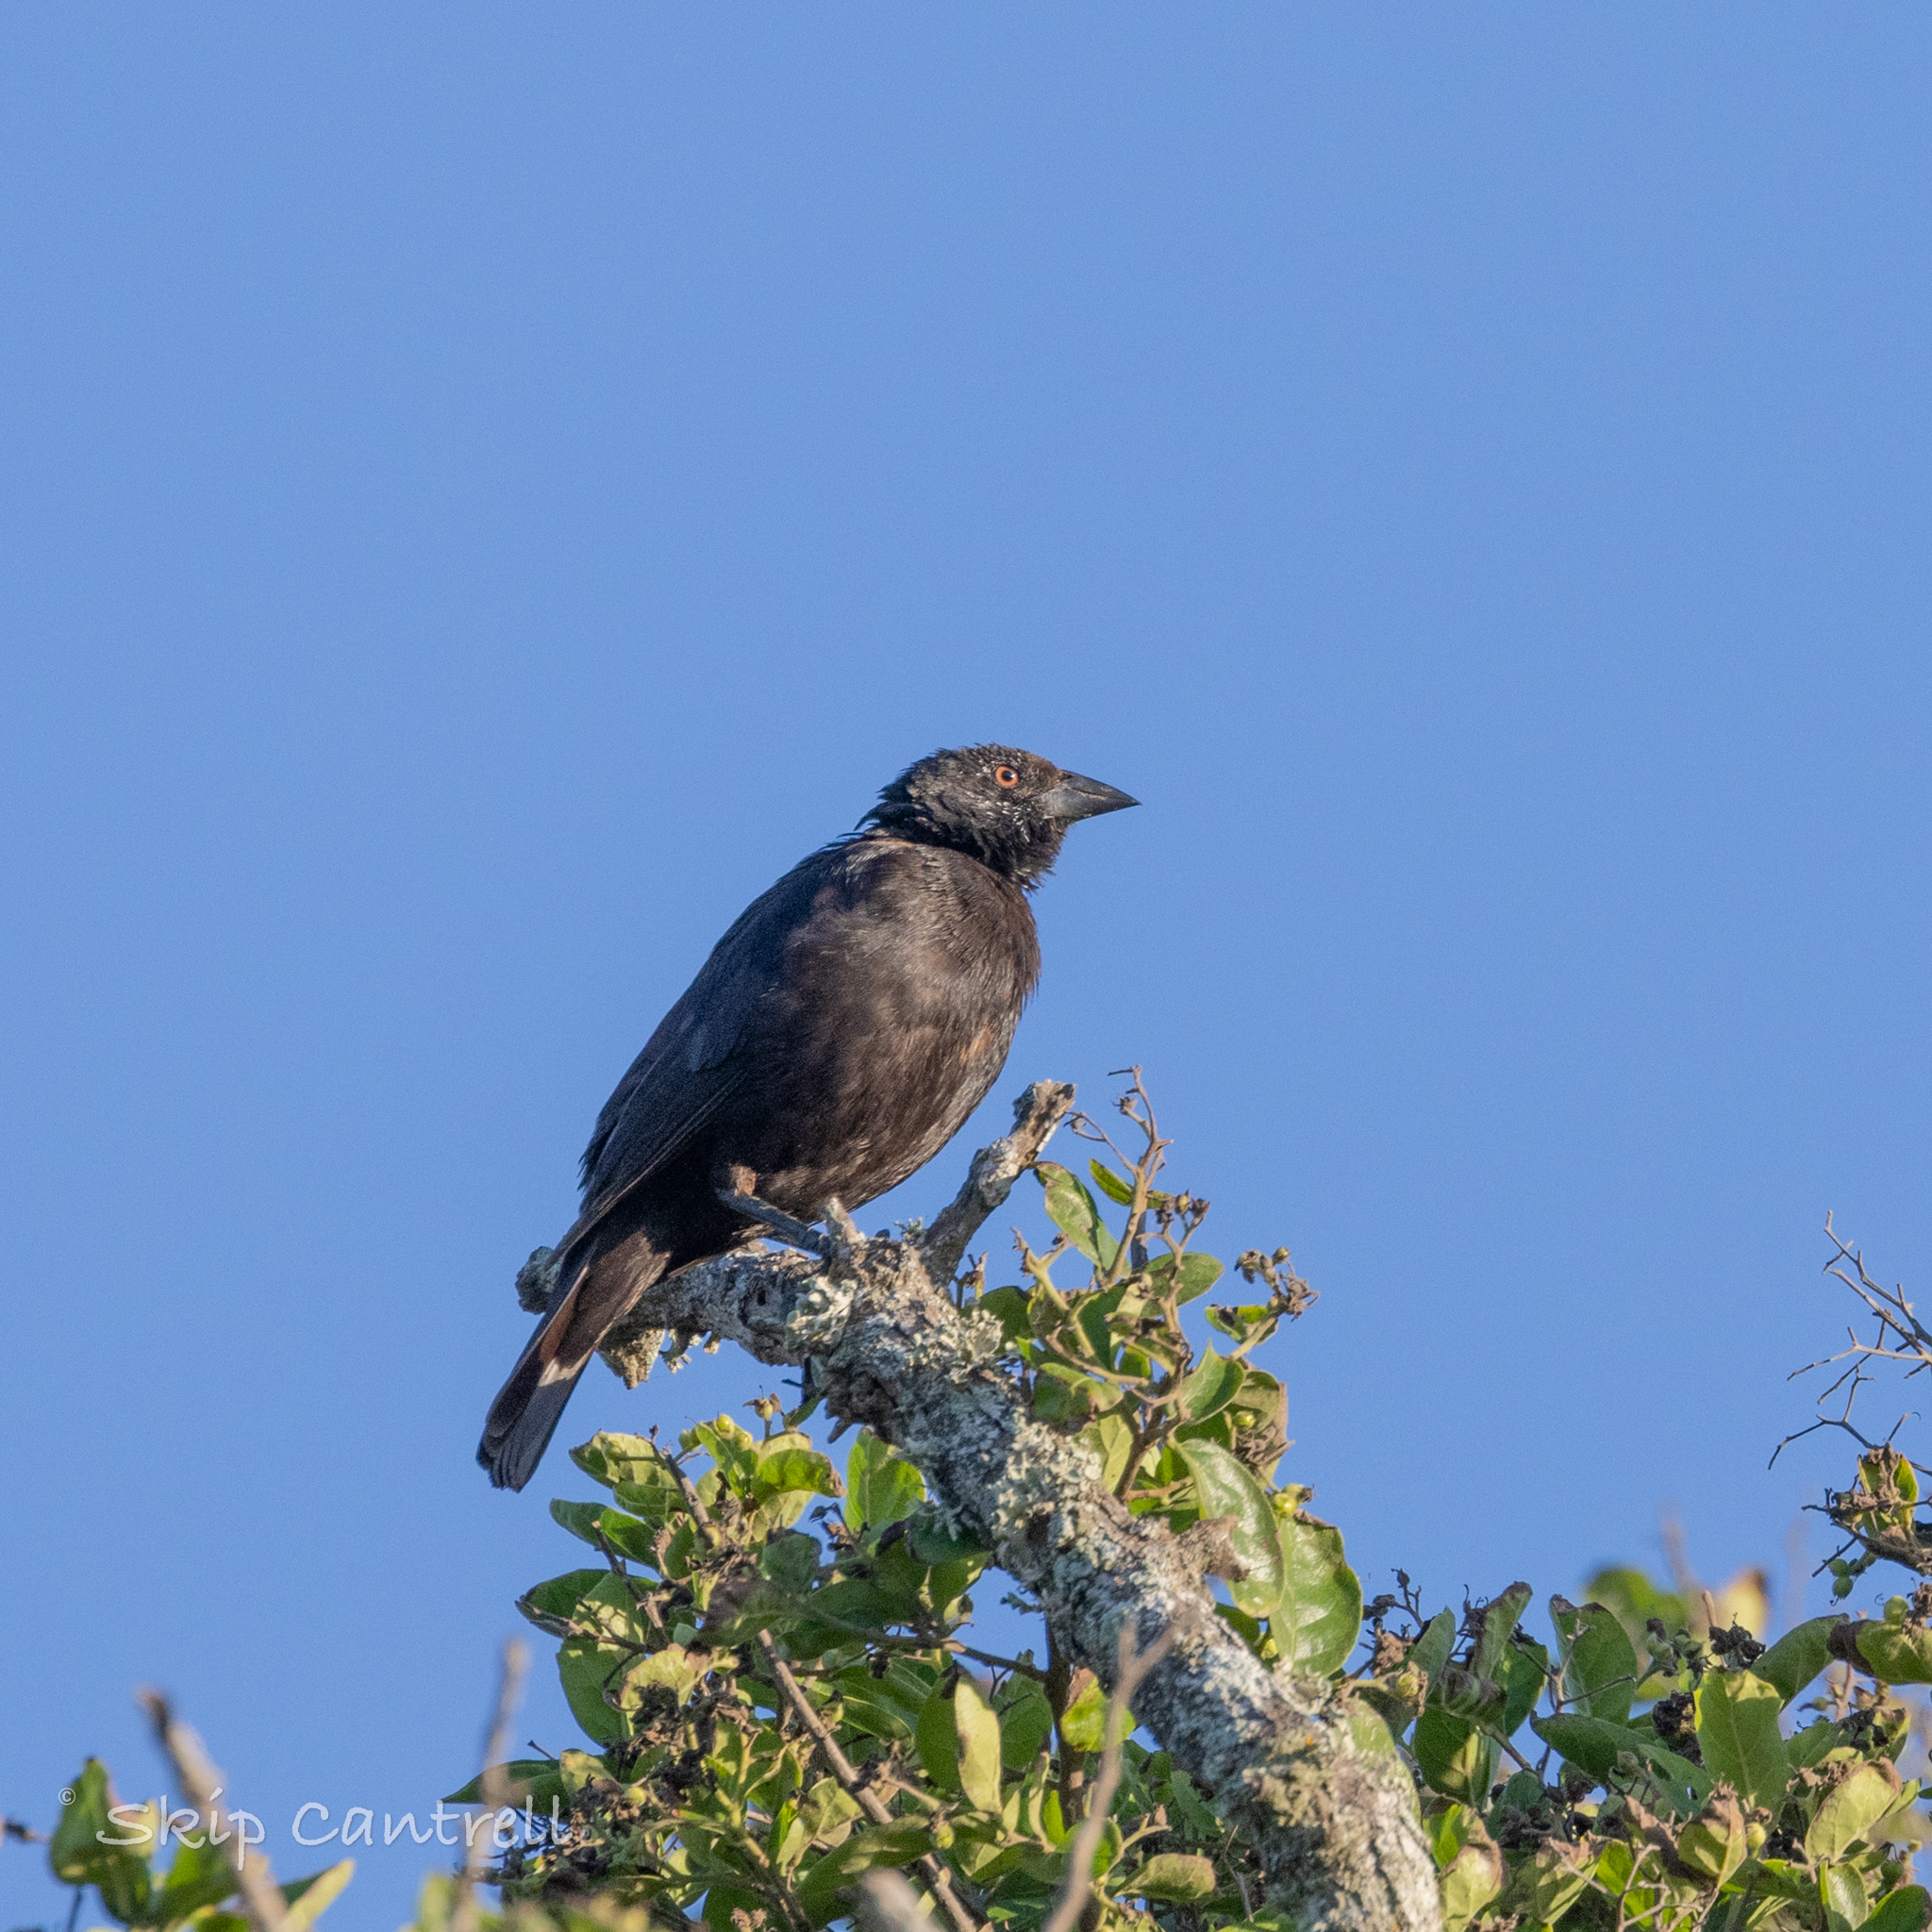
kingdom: Animalia
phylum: Chordata
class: Aves
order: Passeriformes
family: Icteridae
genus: Molothrus
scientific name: Molothrus aeneus
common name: Bronzed cowbird
